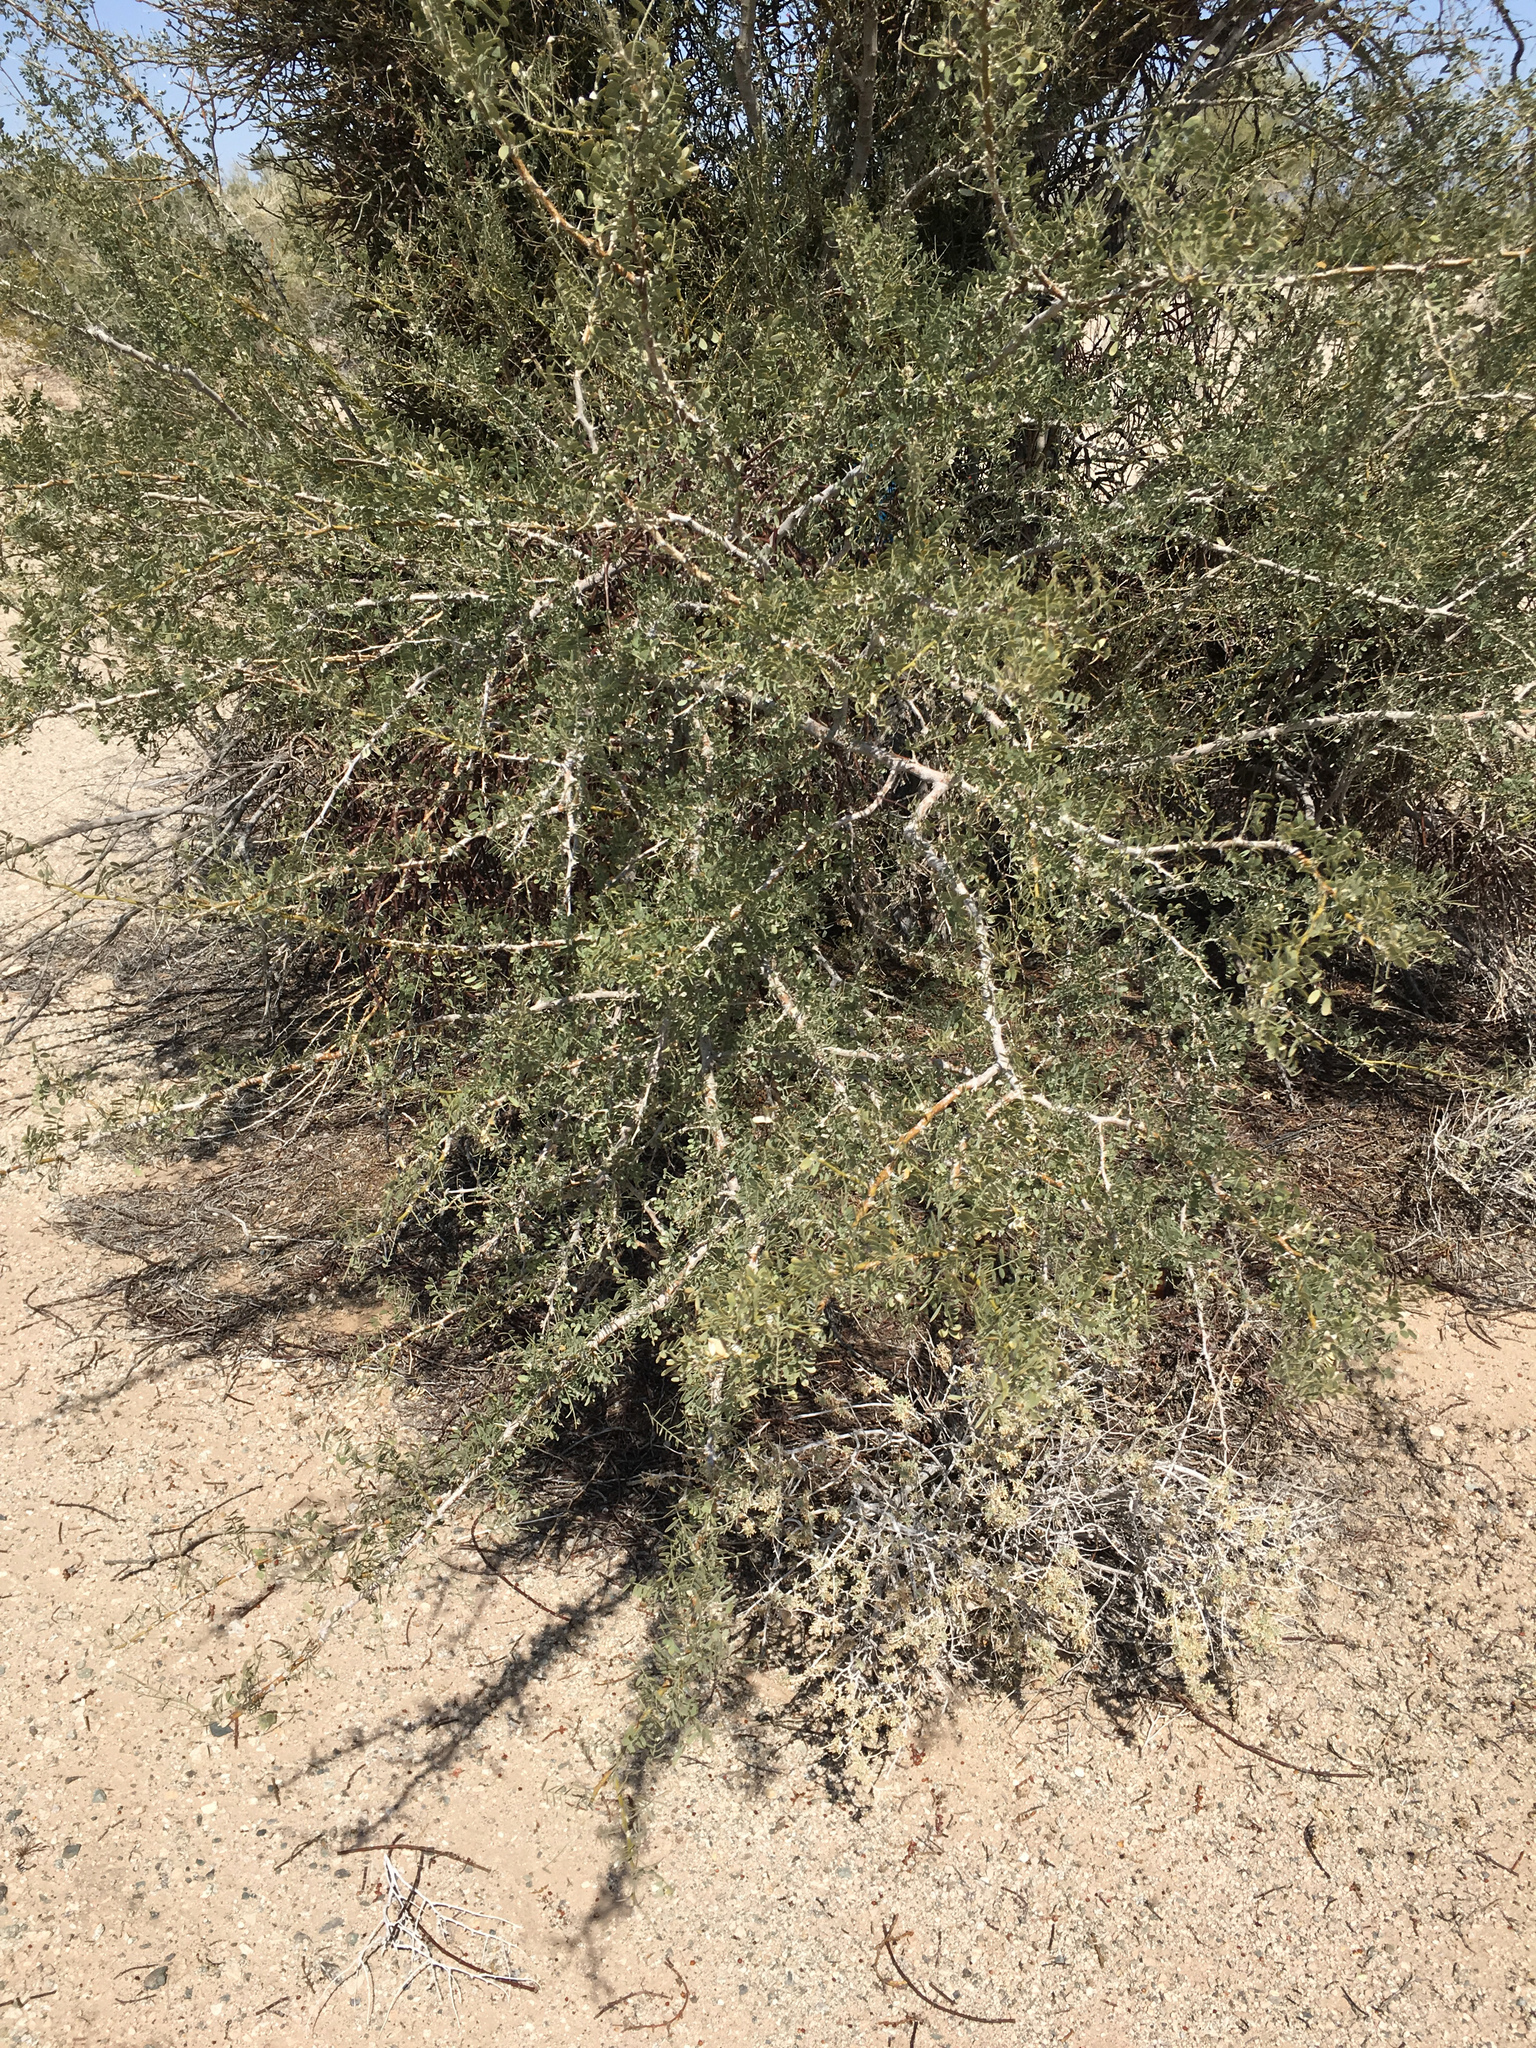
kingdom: Plantae
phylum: Tracheophyta
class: Magnoliopsida
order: Fabales
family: Fabaceae
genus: Olneya
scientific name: Olneya tesota
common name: Desert ironwood
